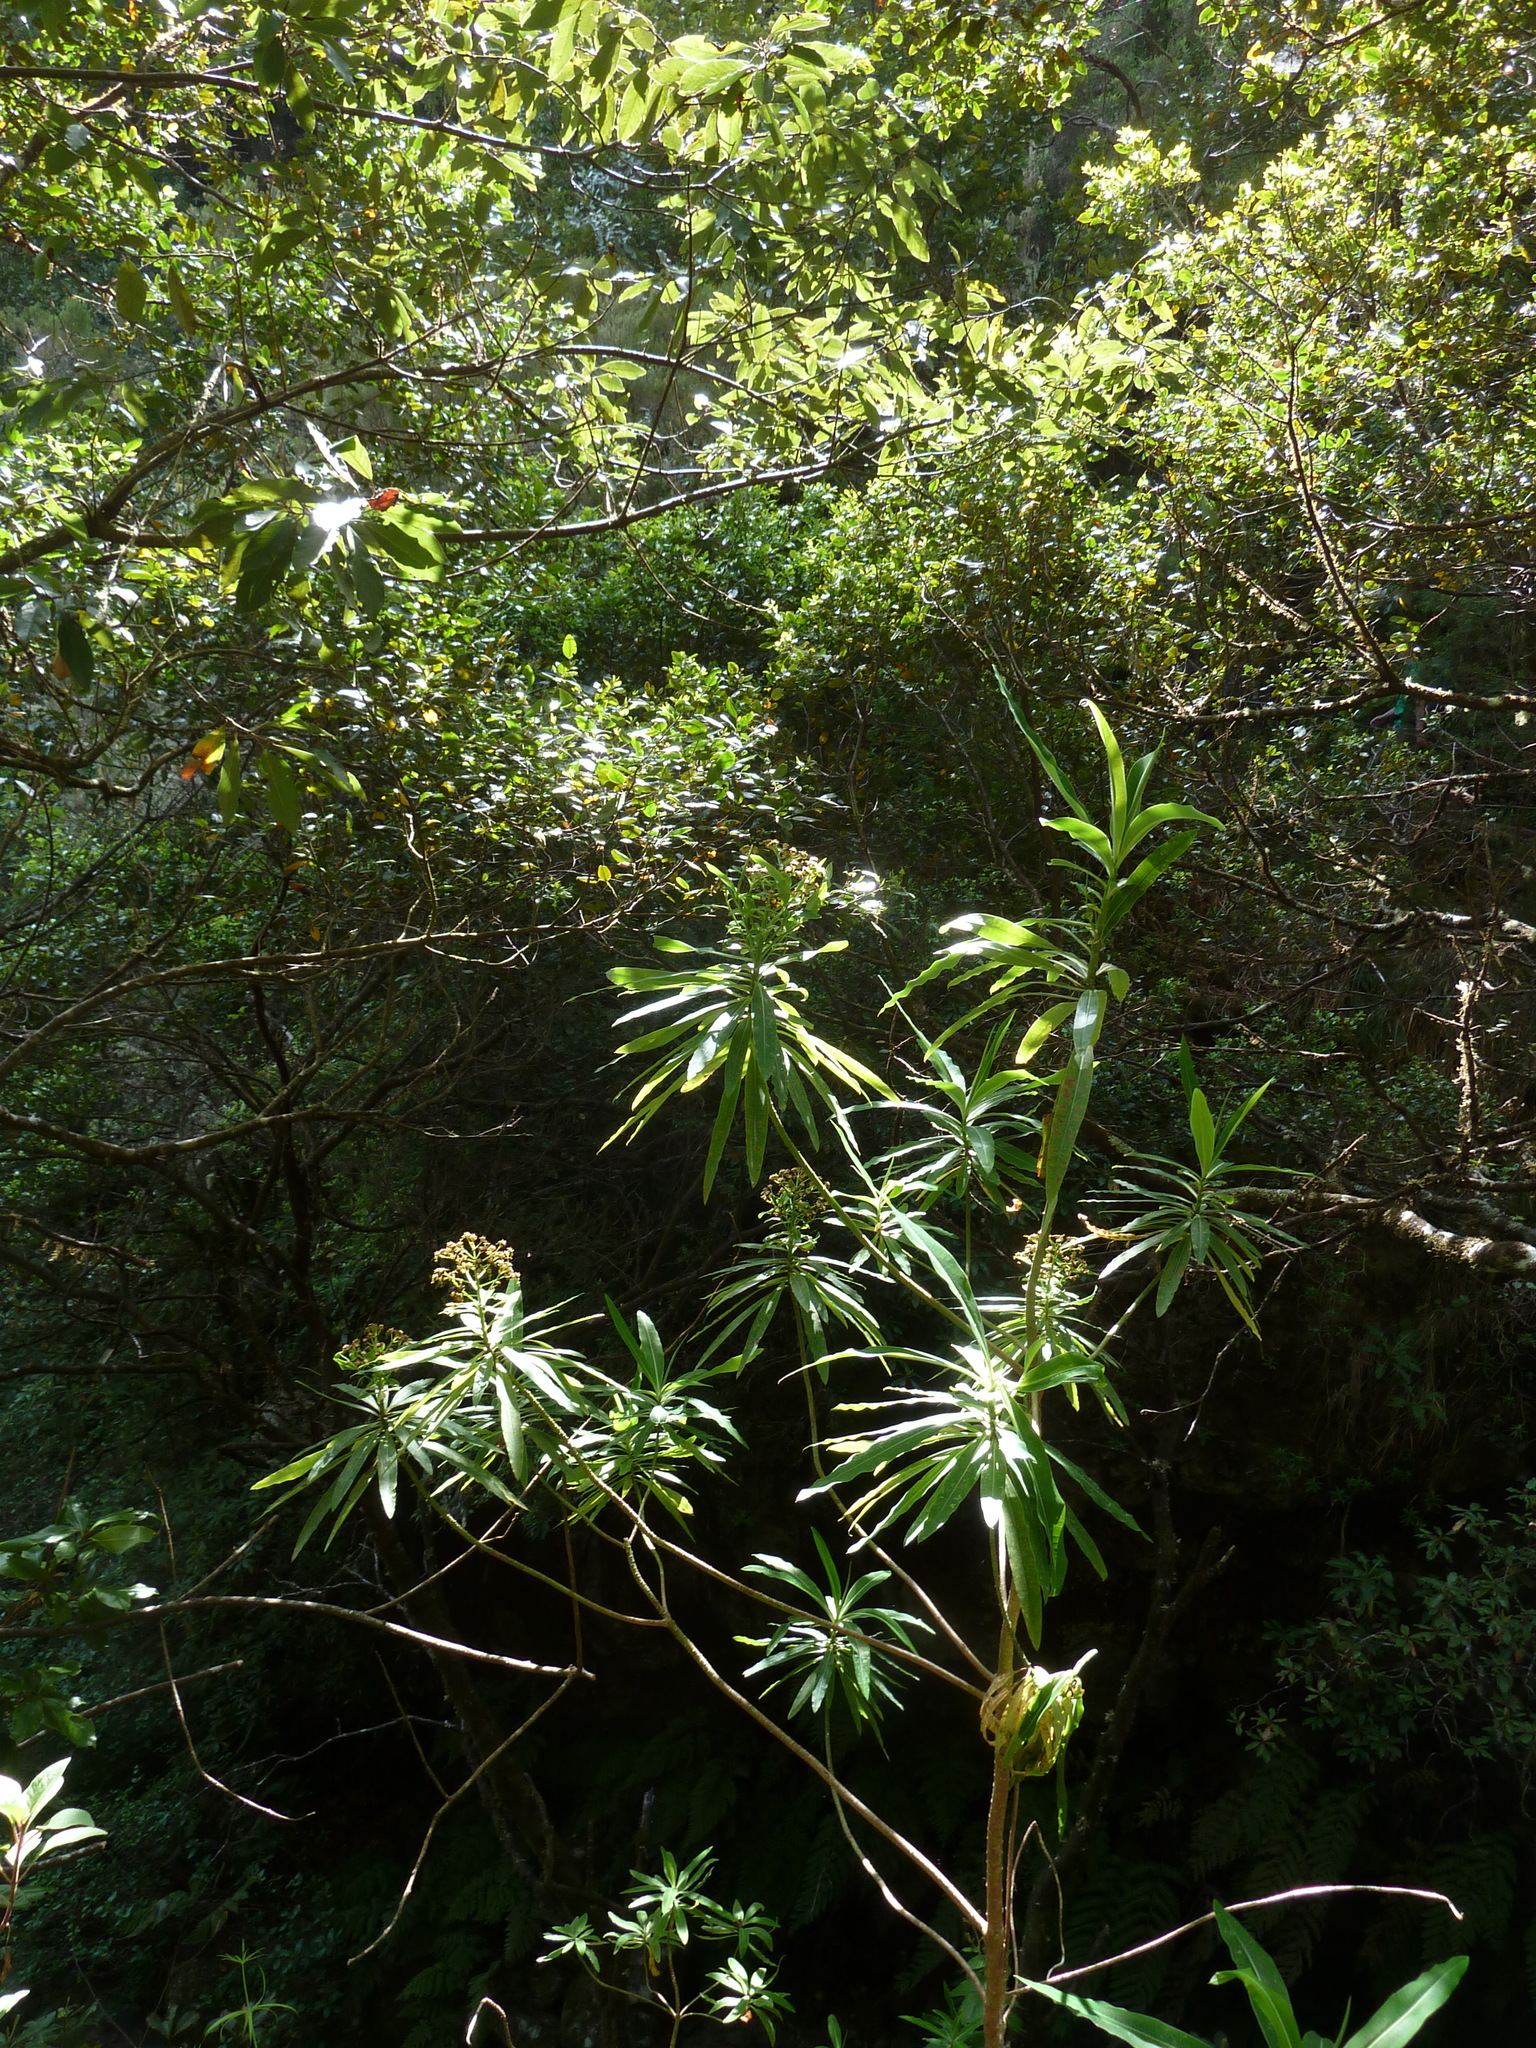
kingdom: Plantae
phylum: Tracheophyta
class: Magnoliopsida
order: Malpighiales
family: Euphorbiaceae
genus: Euphorbia
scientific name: Euphorbia mellifera
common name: Canary spurge
